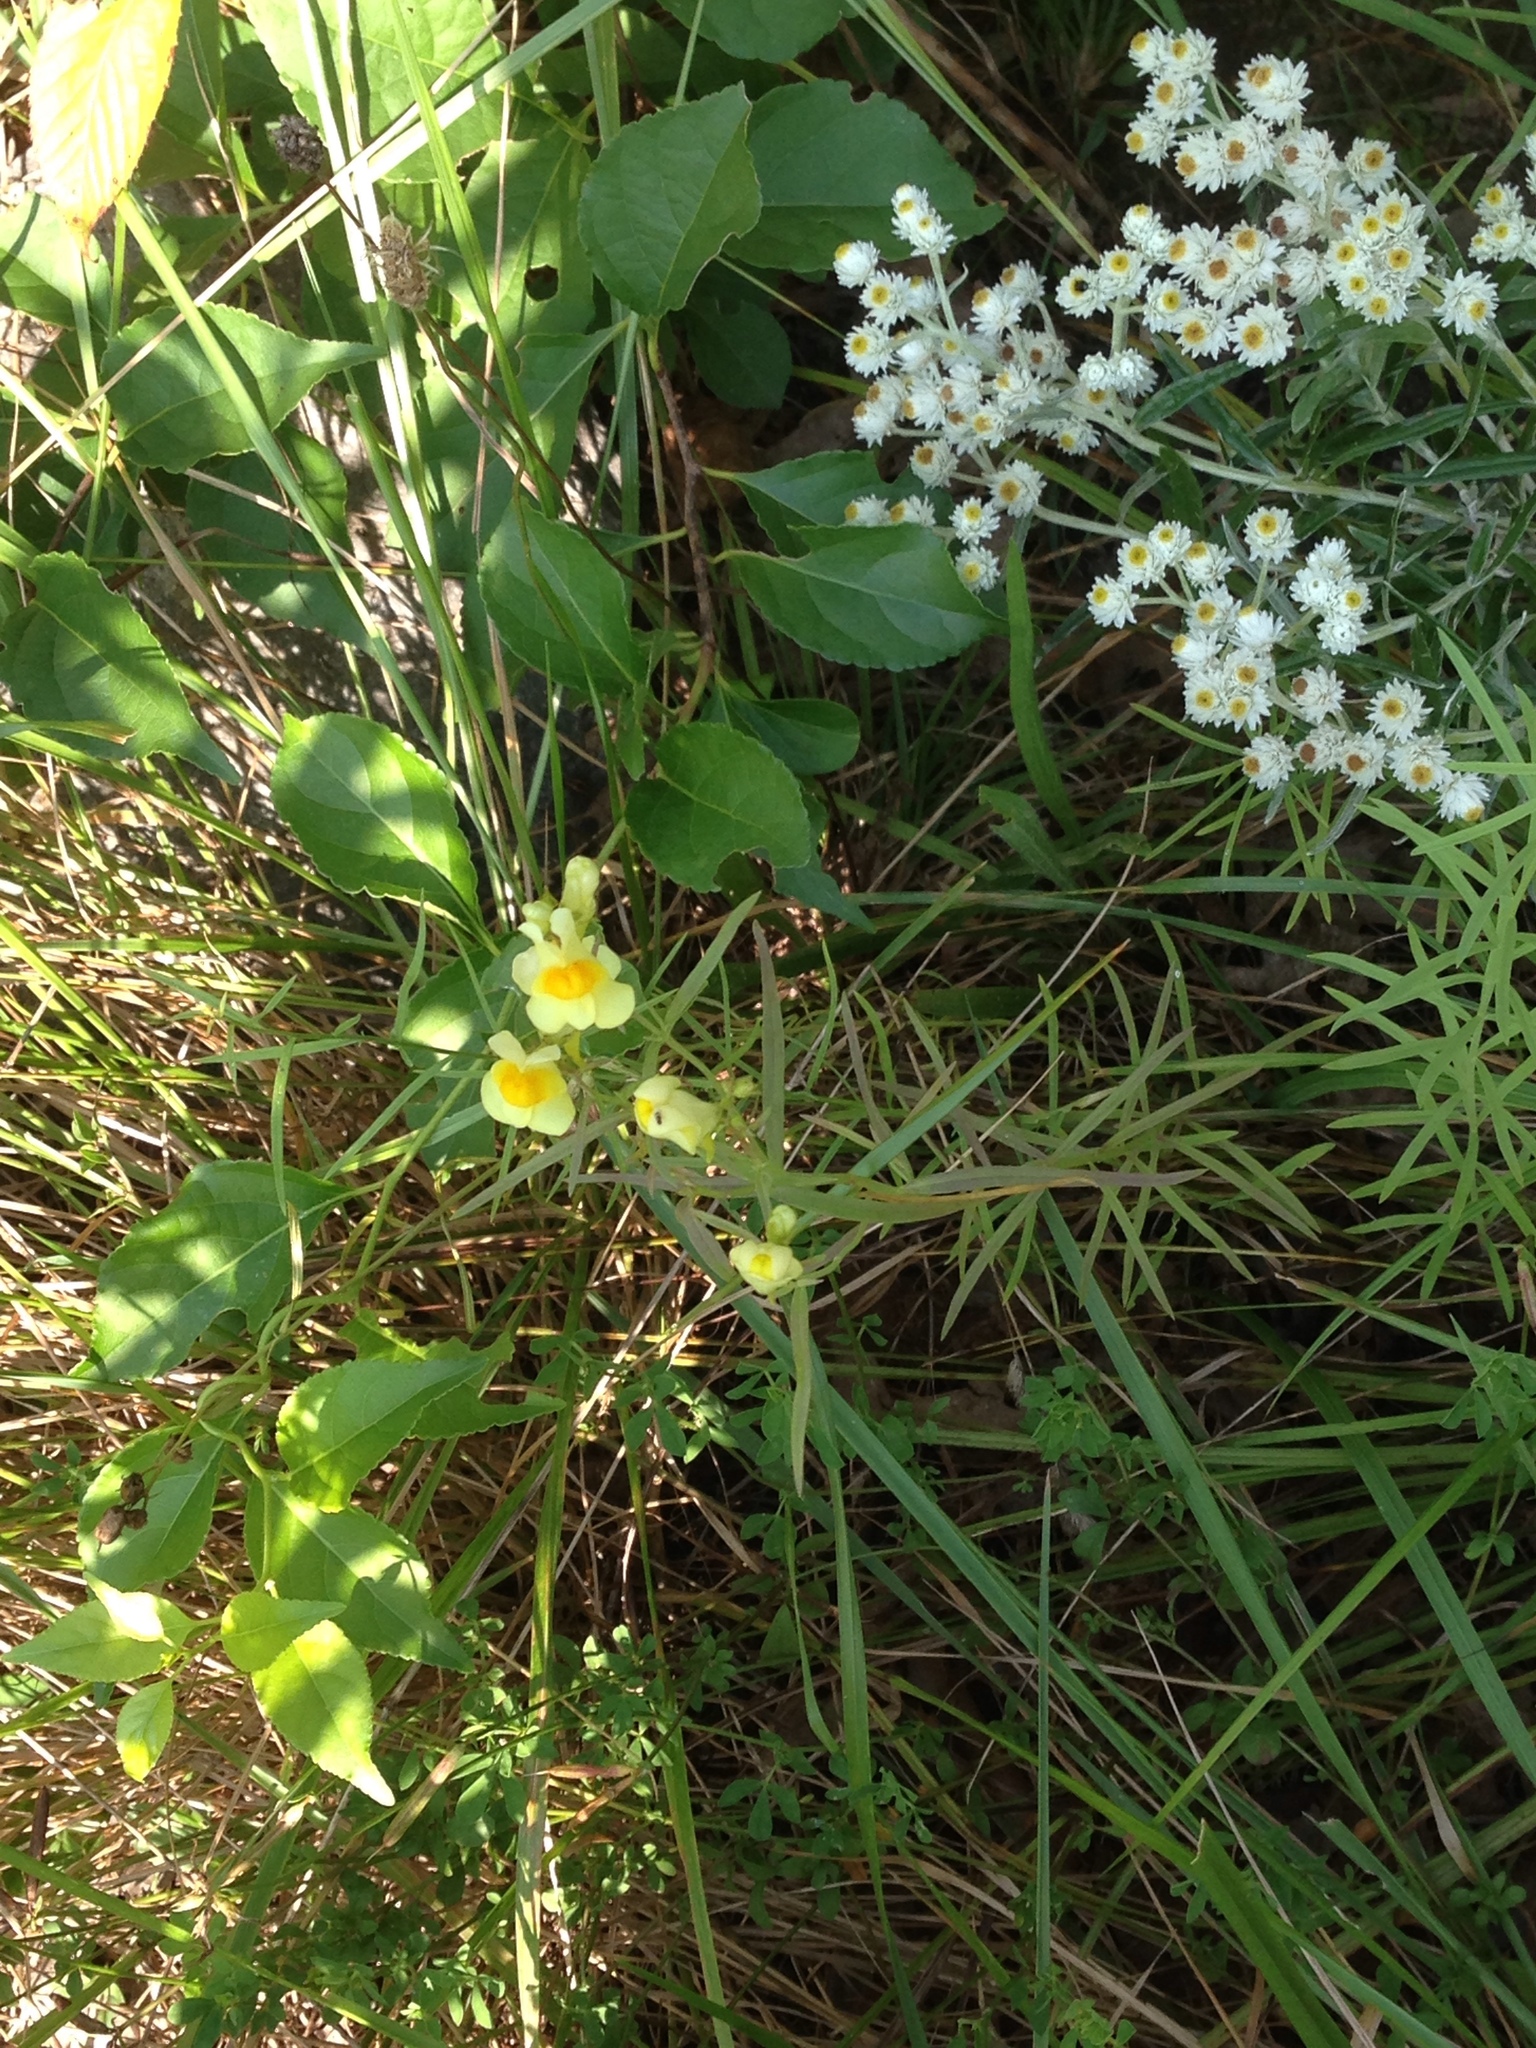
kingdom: Plantae
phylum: Tracheophyta
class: Magnoliopsida
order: Lamiales
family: Plantaginaceae
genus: Linaria
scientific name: Linaria vulgaris
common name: Butter and eggs
